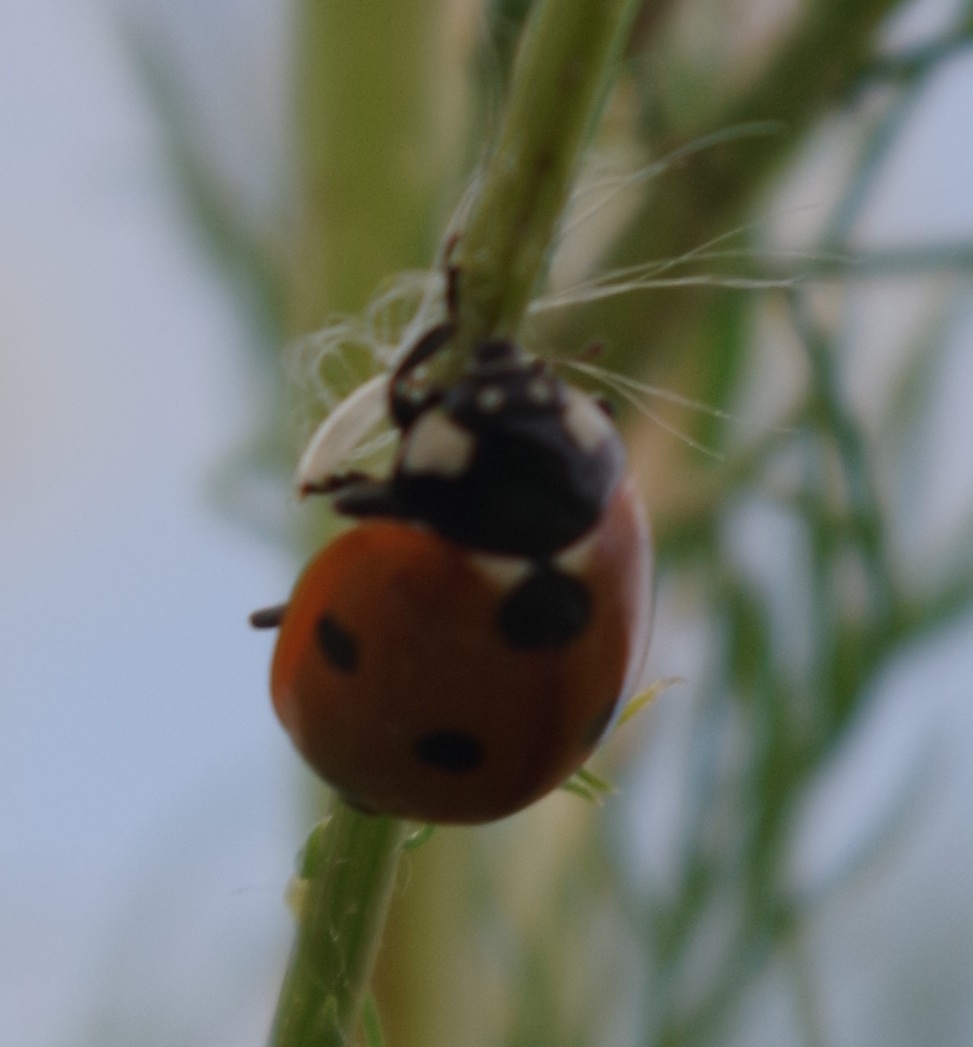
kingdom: Animalia
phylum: Arthropoda
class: Insecta
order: Coleoptera
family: Coccinellidae
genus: Coccinella
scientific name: Coccinella septempunctata
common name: Sevenspotted lady beetle
